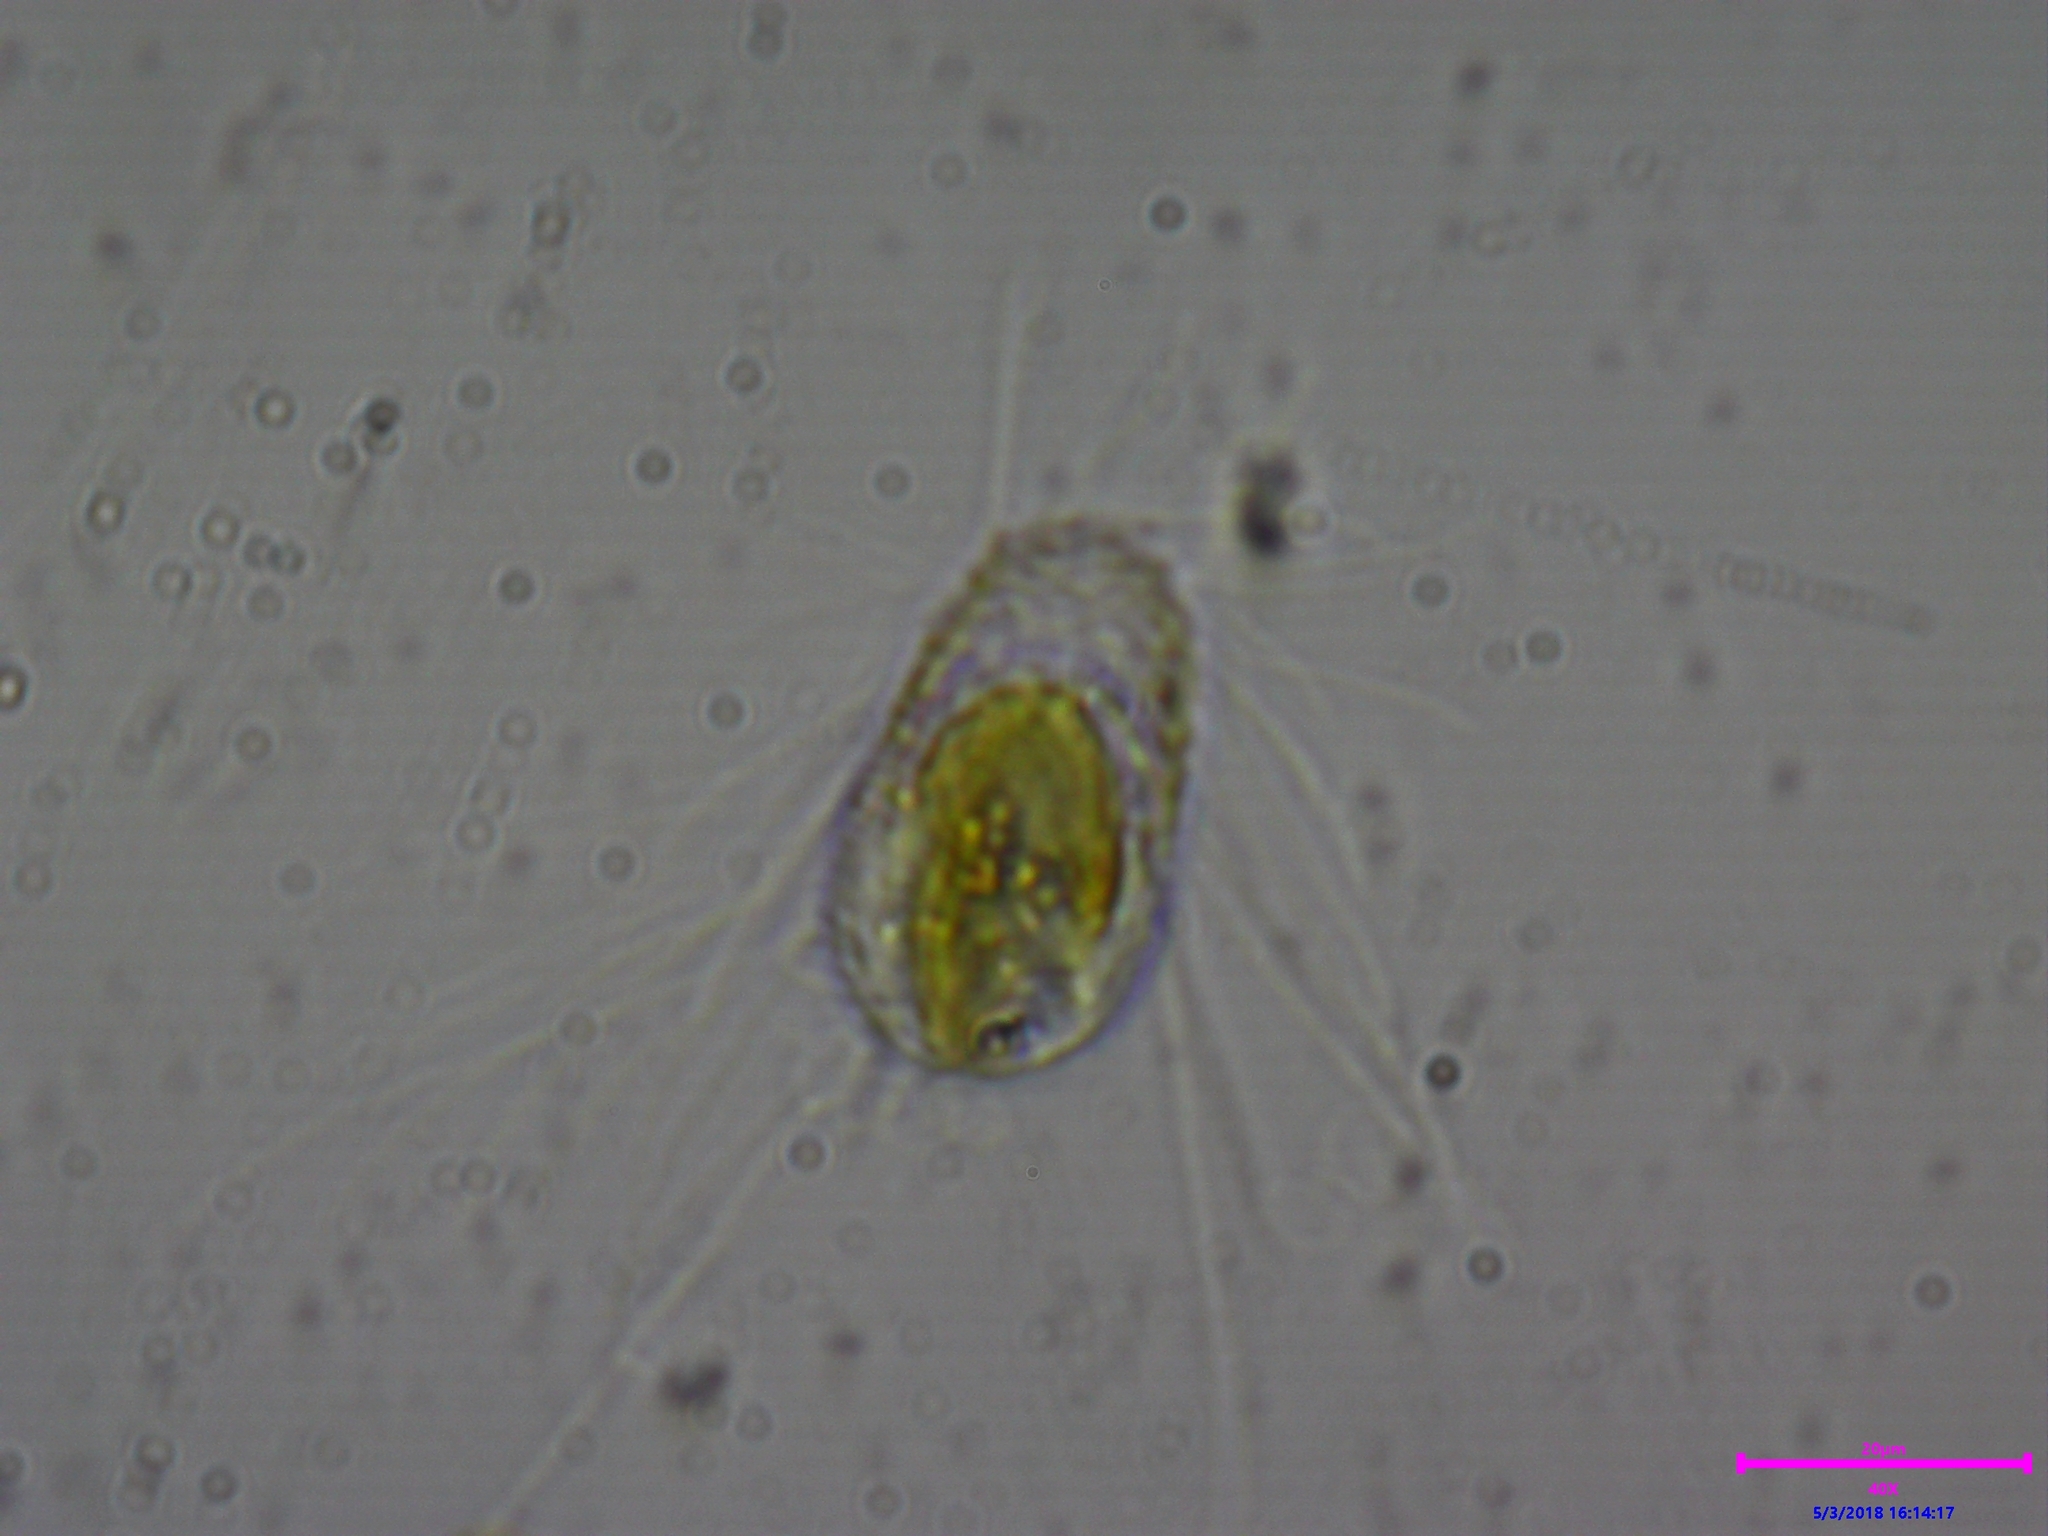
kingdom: Chromista
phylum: Ochrophyta
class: Chrysophyceae
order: Synurales
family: Mallomonadaceae
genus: Mallomonas
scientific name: Mallomonas
